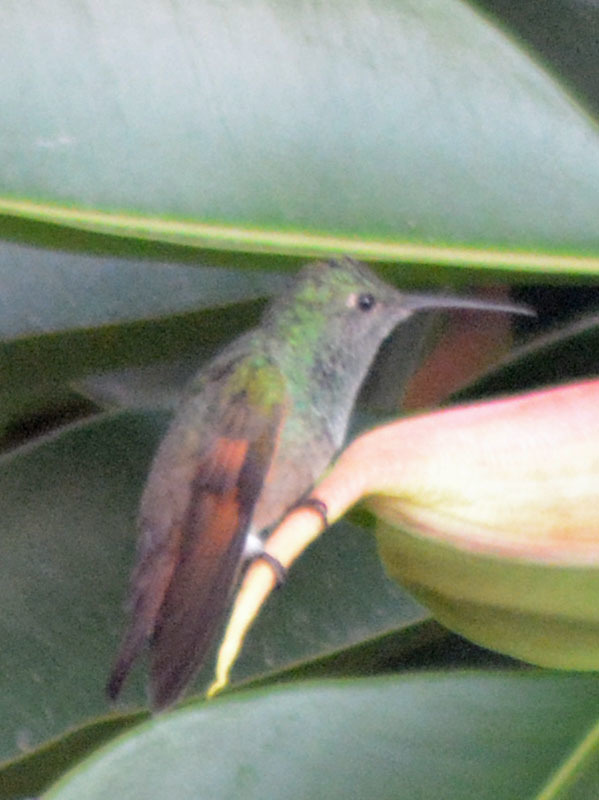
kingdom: Animalia
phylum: Chordata
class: Aves
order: Apodiformes
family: Trochilidae
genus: Saucerottia
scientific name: Saucerottia beryllina
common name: Berylline hummingbird
